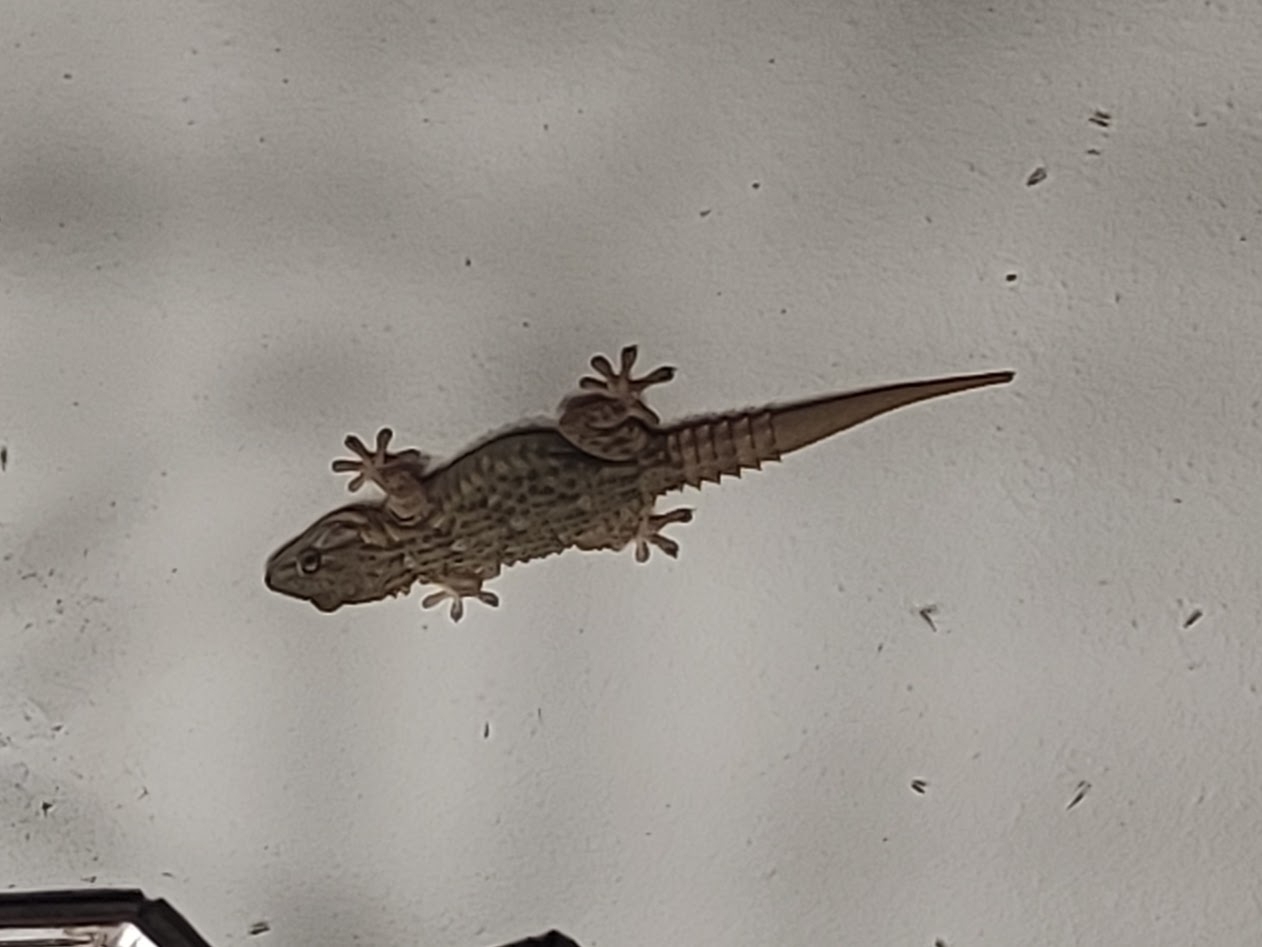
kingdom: Animalia
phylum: Chordata
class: Squamata
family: Phyllodactylidae
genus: Tarentola
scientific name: Tarentola mauritanica
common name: Moorish gecko
